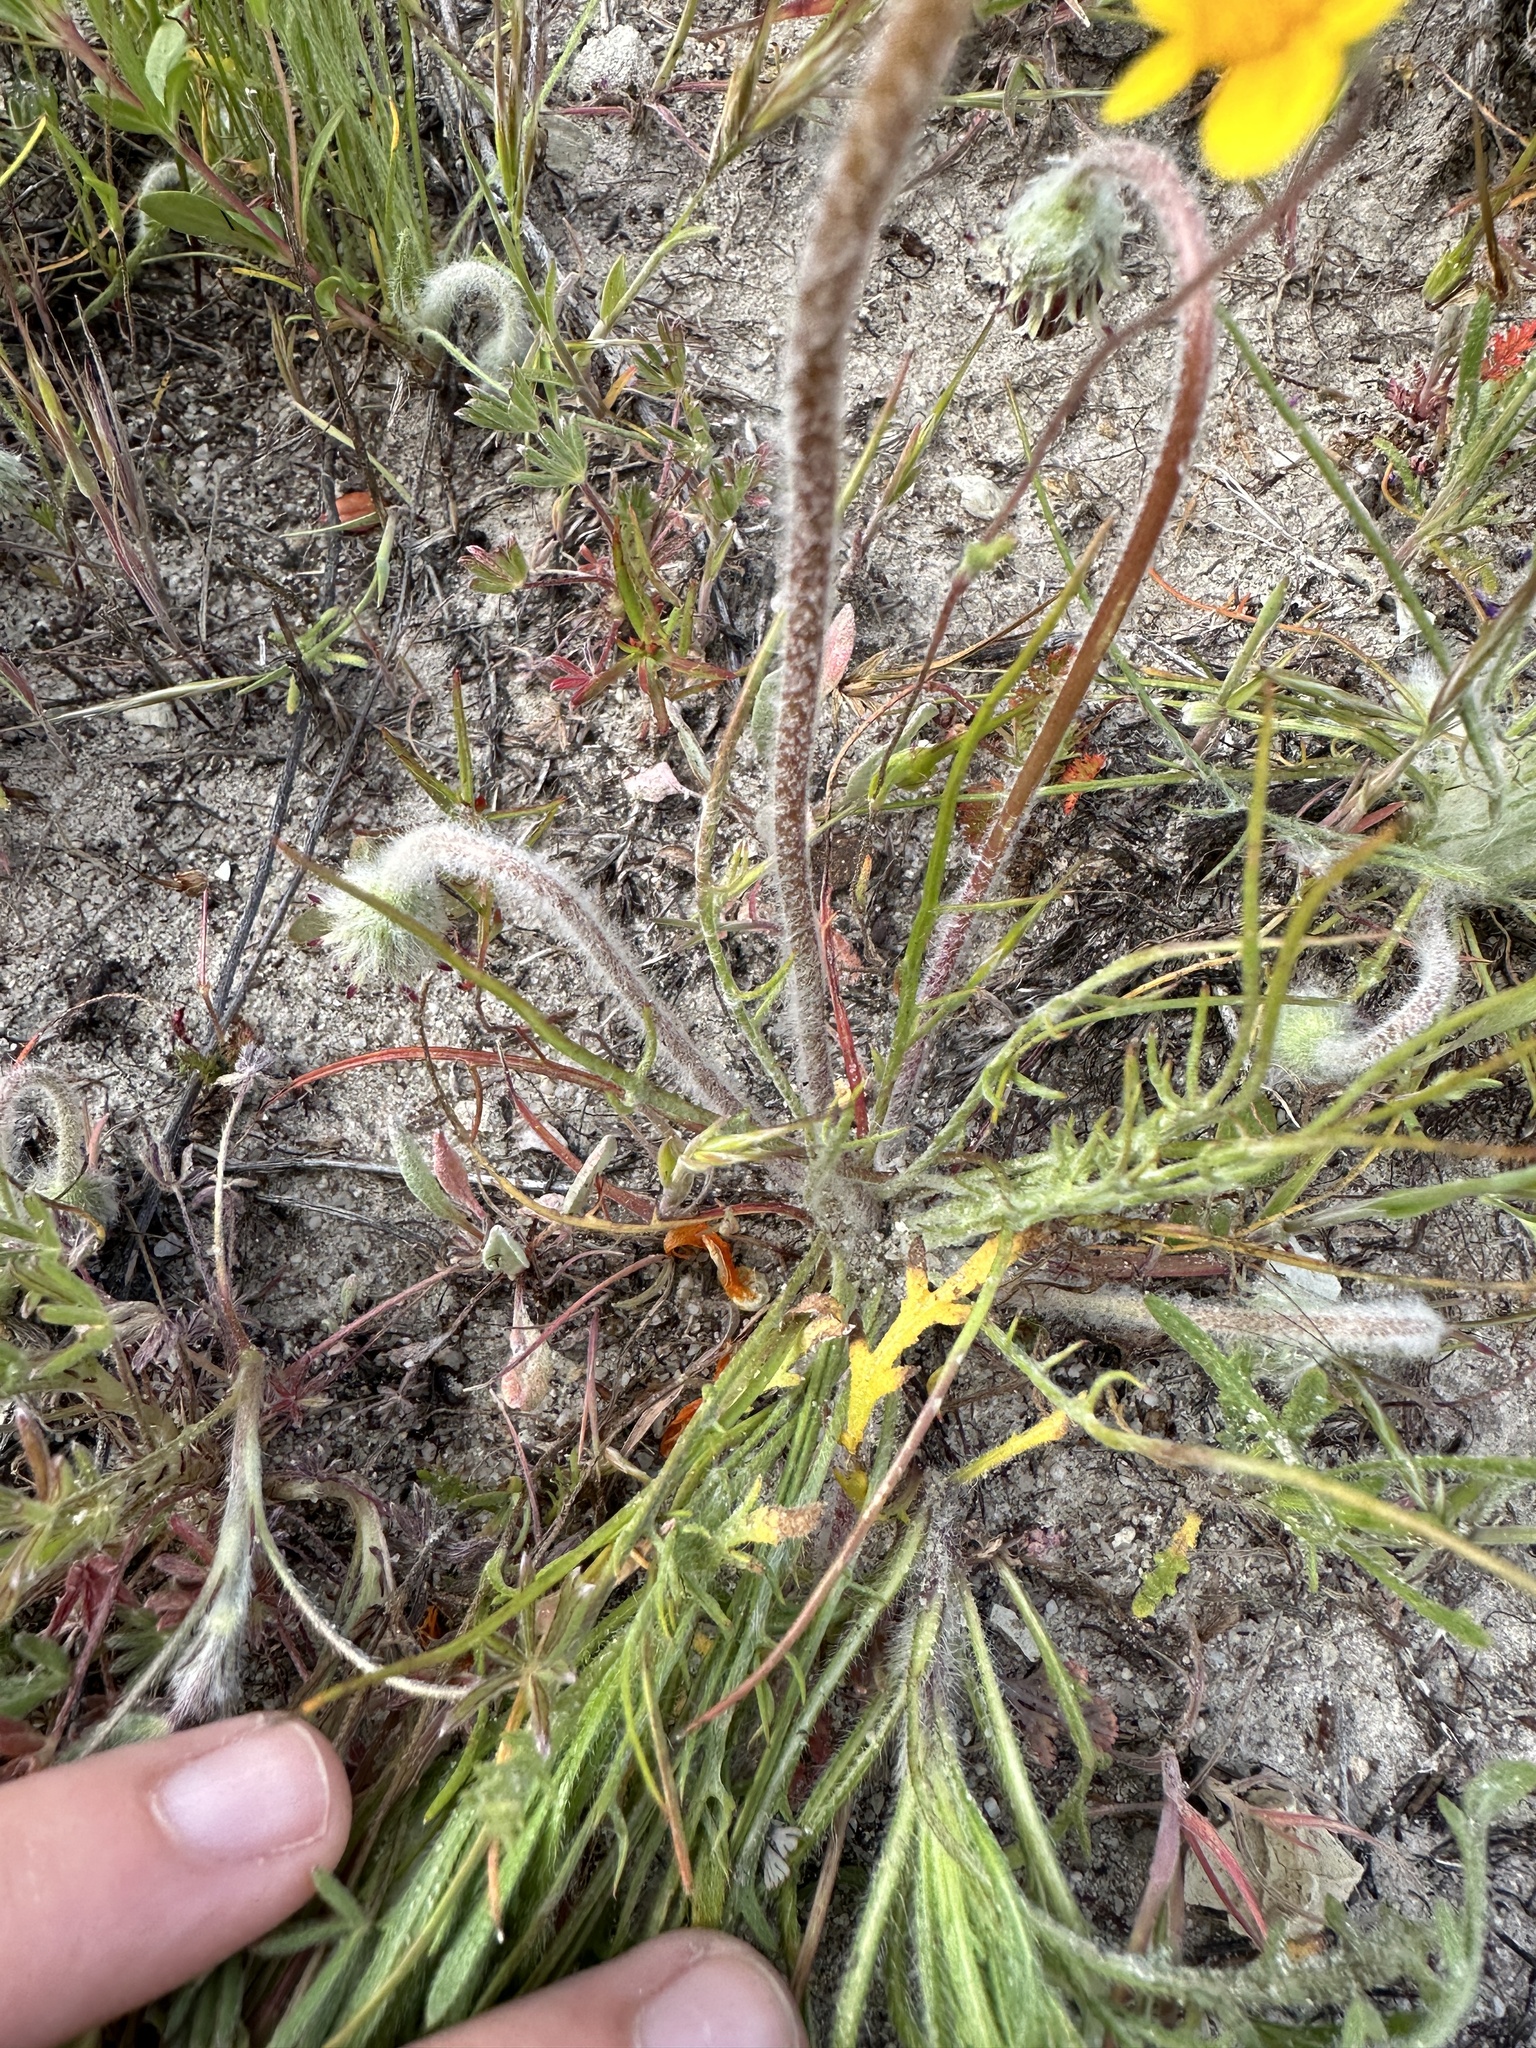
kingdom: Plantae
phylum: Tracheophyta
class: Magnoliopsida
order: Asterales
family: Asteraceae
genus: Malacothrix
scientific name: Malacothrix californica
